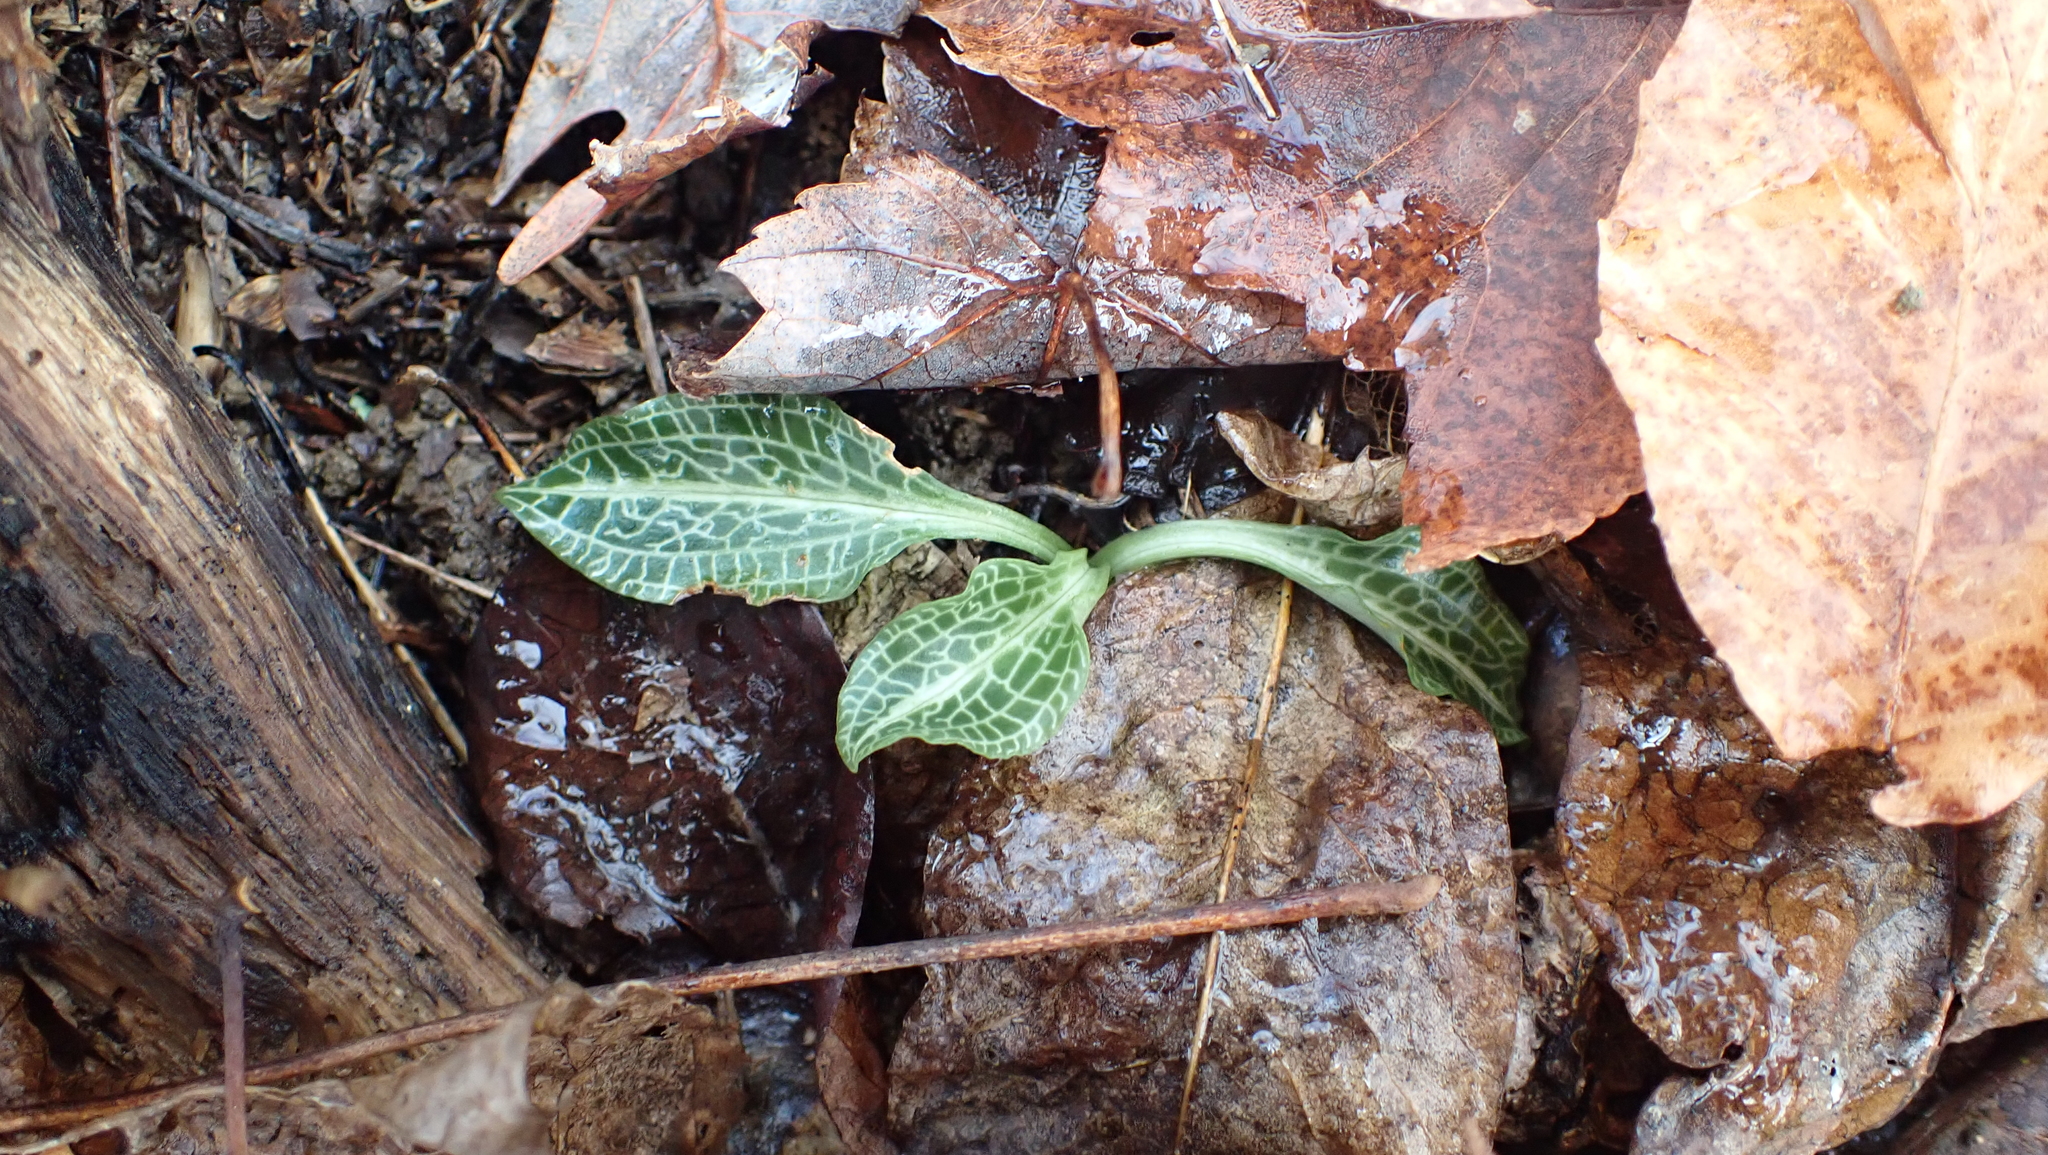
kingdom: Plantae
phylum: Tracheophyta
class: Liliopsida
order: Asparagales
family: Orchidaceae
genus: Goodyera
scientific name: Goodyera pubescens
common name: Downy rattlesnake-plantain
